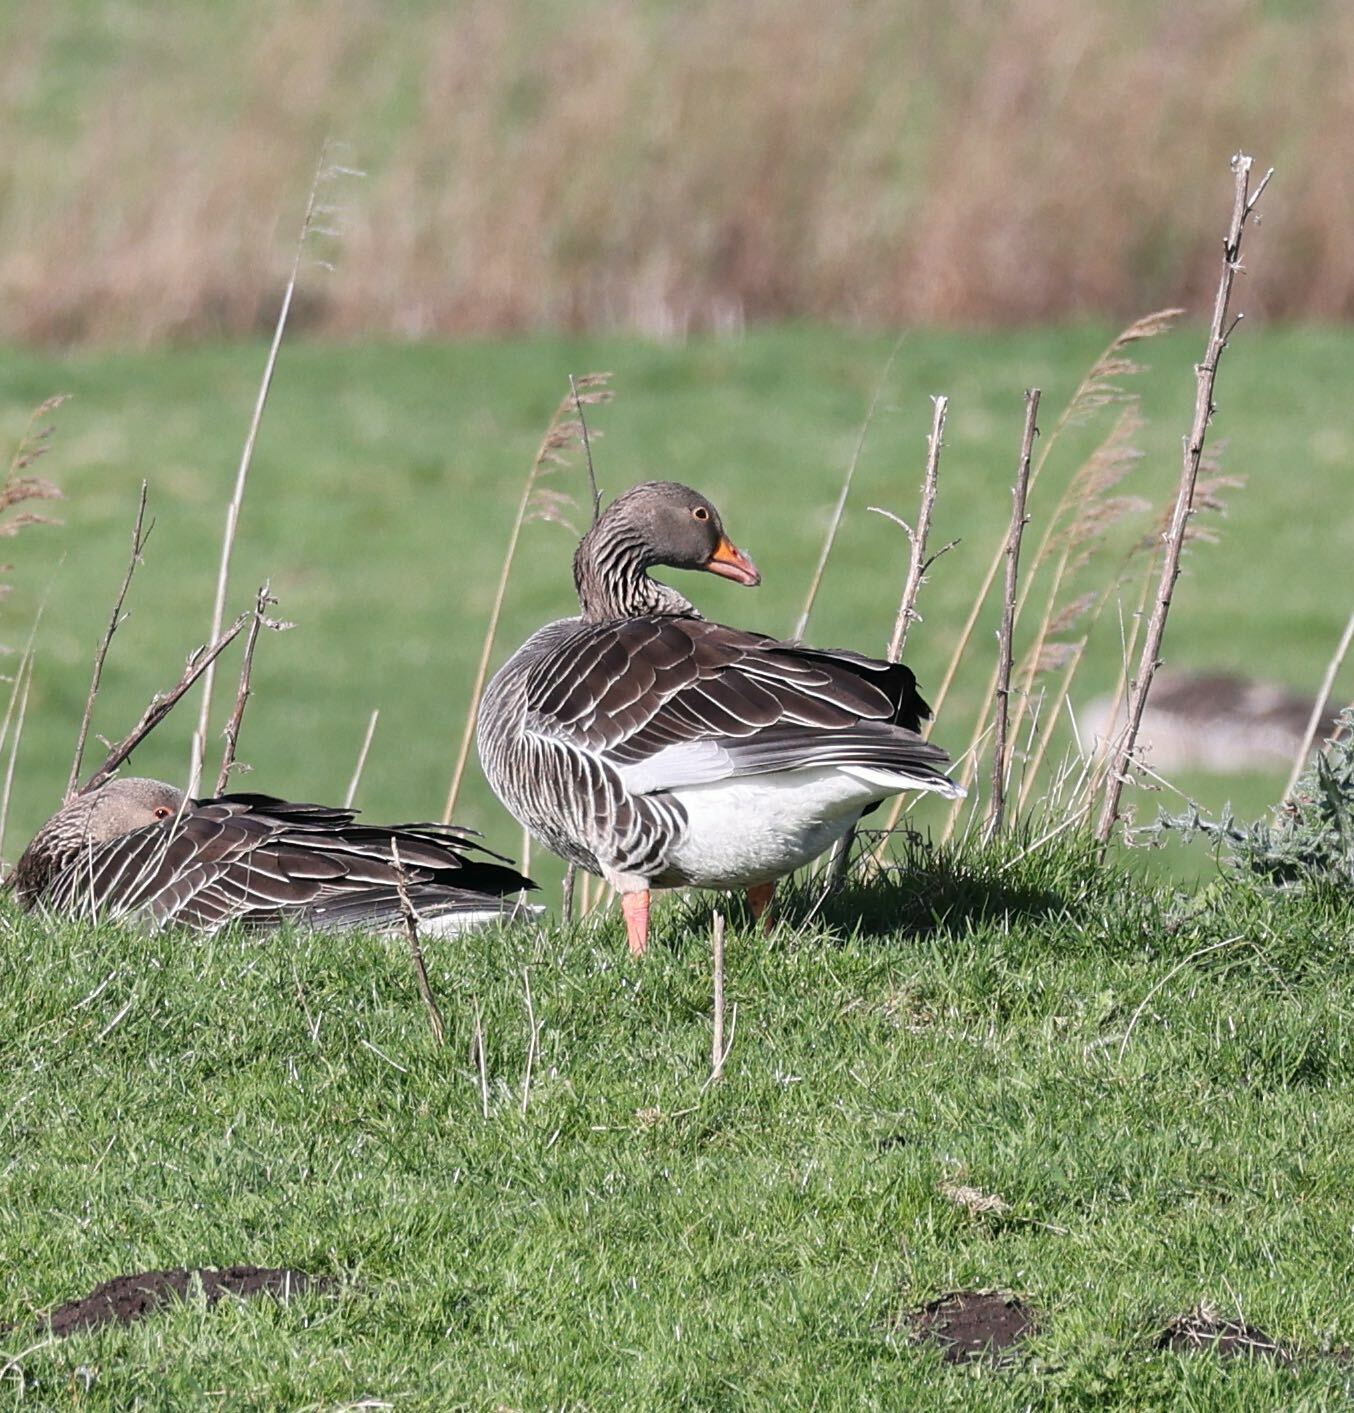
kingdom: Animalia
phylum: Chordata
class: Aves
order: Anseriformes
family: Anatidae
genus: Anser
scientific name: Anser anser
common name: Greylag goose
